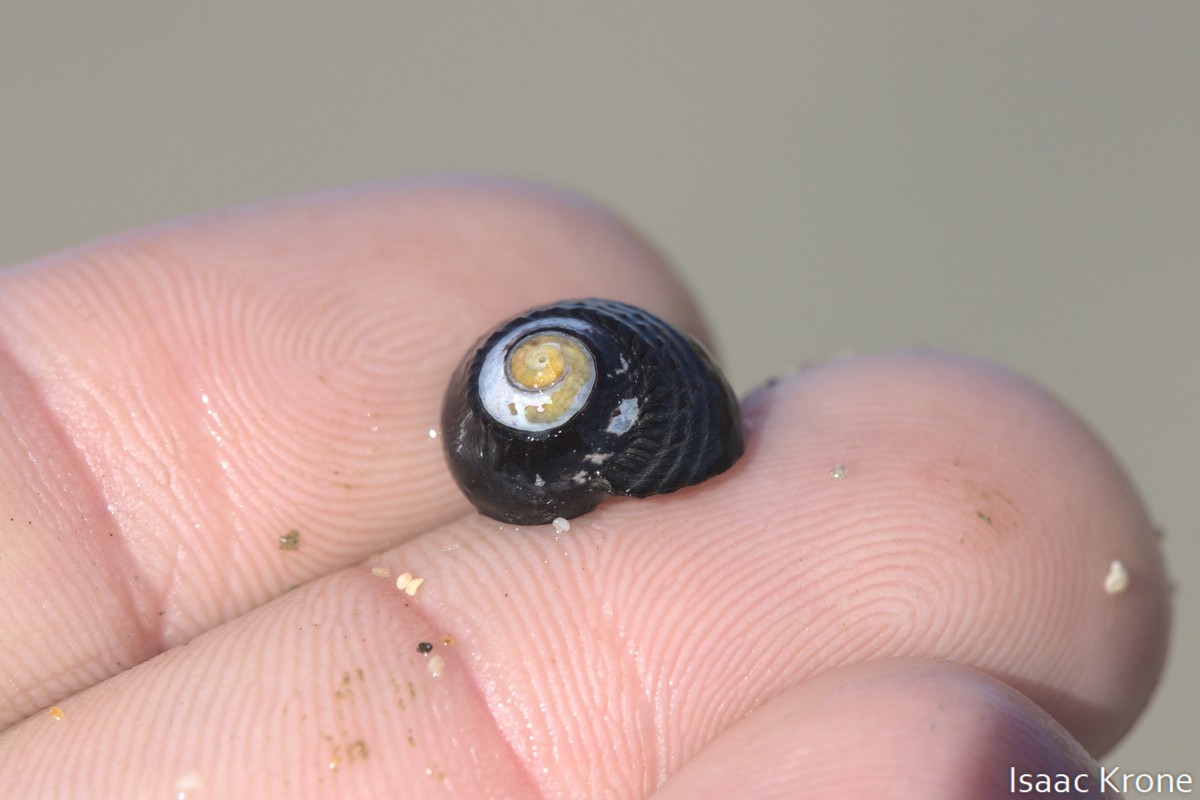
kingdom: Animalia
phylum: Mollusca
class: Gastropoda
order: Trochida
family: Tegulidae
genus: Tegula
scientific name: Tegula funebralis
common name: Black tegula
